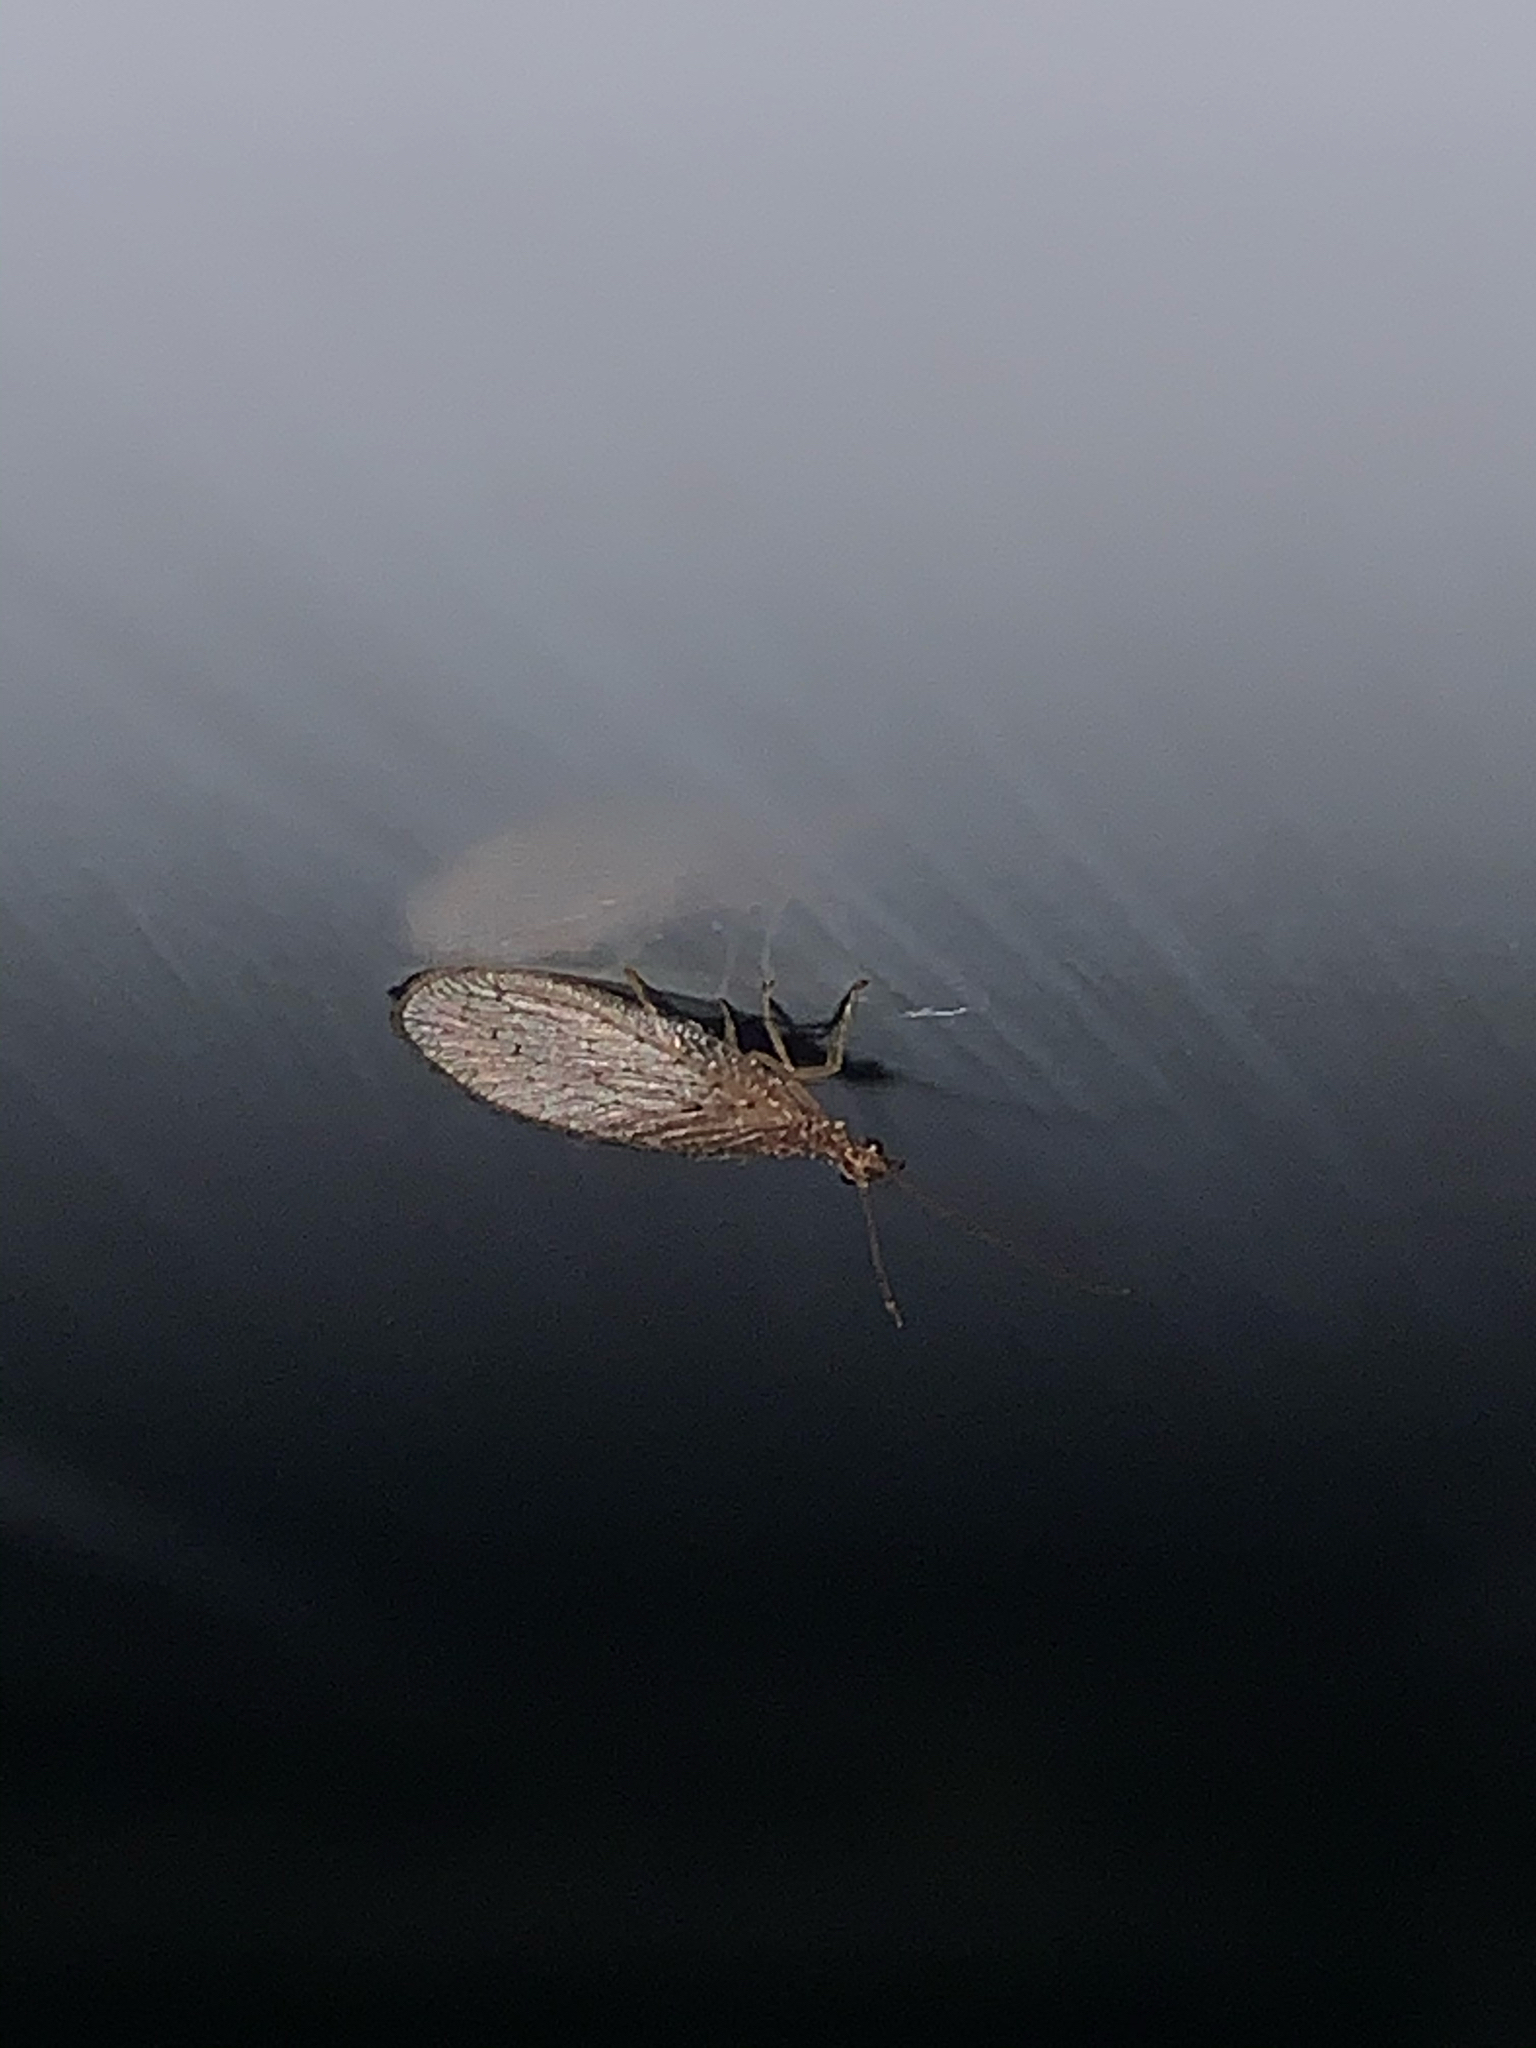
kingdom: Animalia
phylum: Arthropoda
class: Insecta
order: Neuroptera
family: Hemerobiidae
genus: Micromus
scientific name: Micromus
